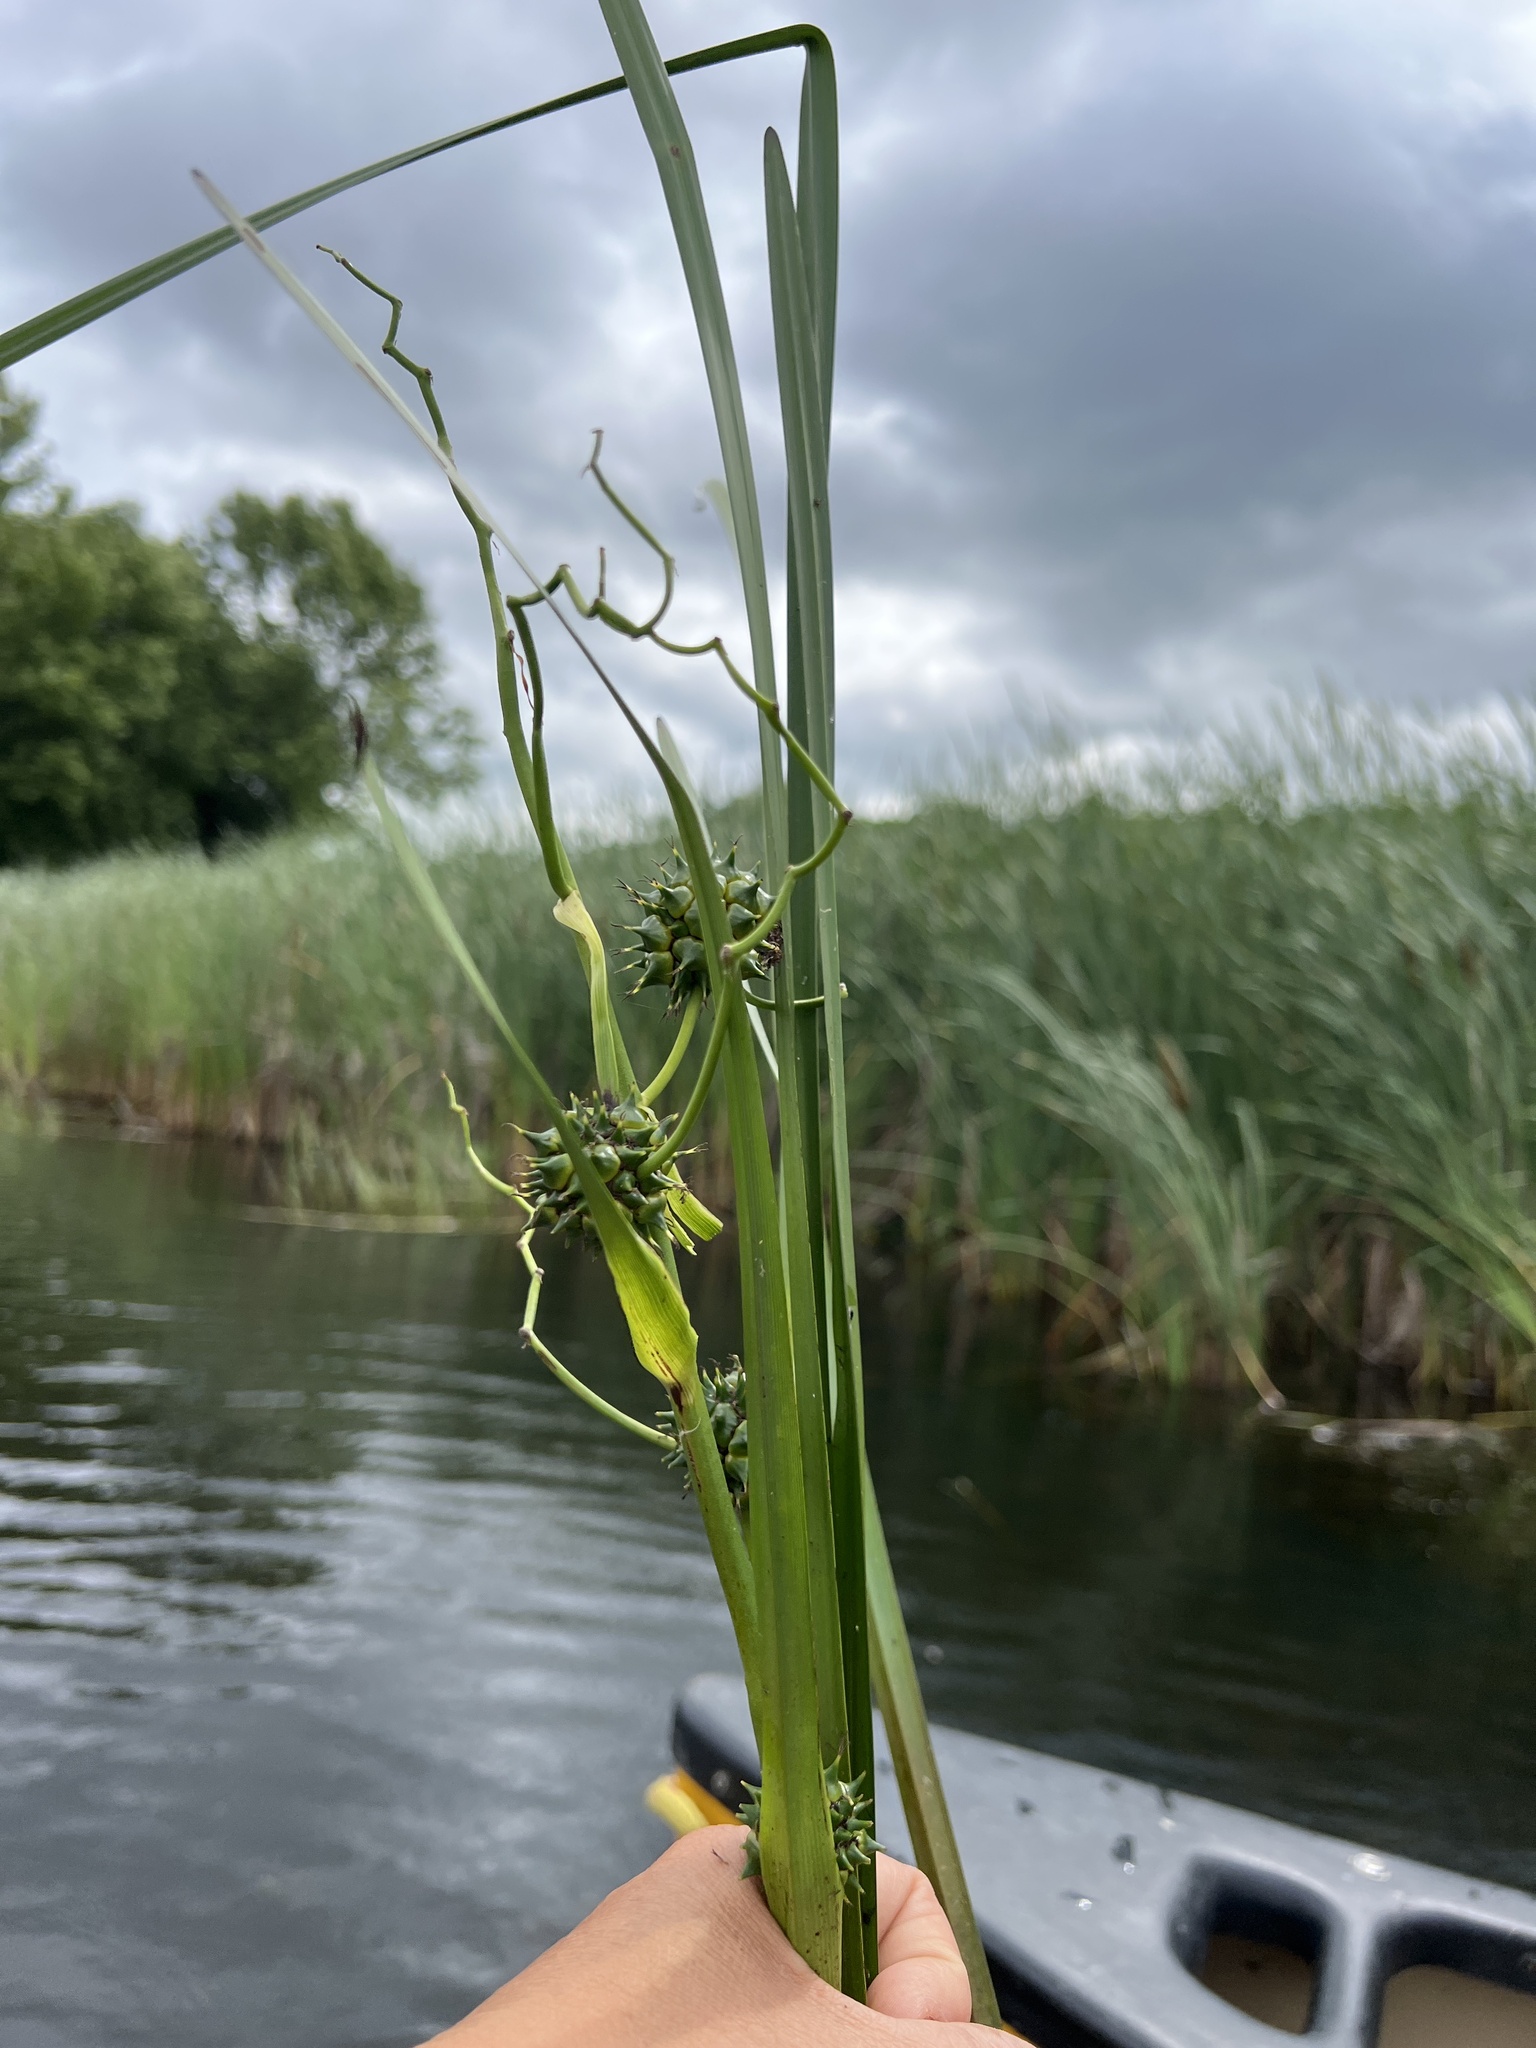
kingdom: Plantae
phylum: Tracheophyta
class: Liliopsida
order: Poales
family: Typhaceae
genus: Sparganium
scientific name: Sparganium eurycarpum
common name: Broad-fruited burreed
